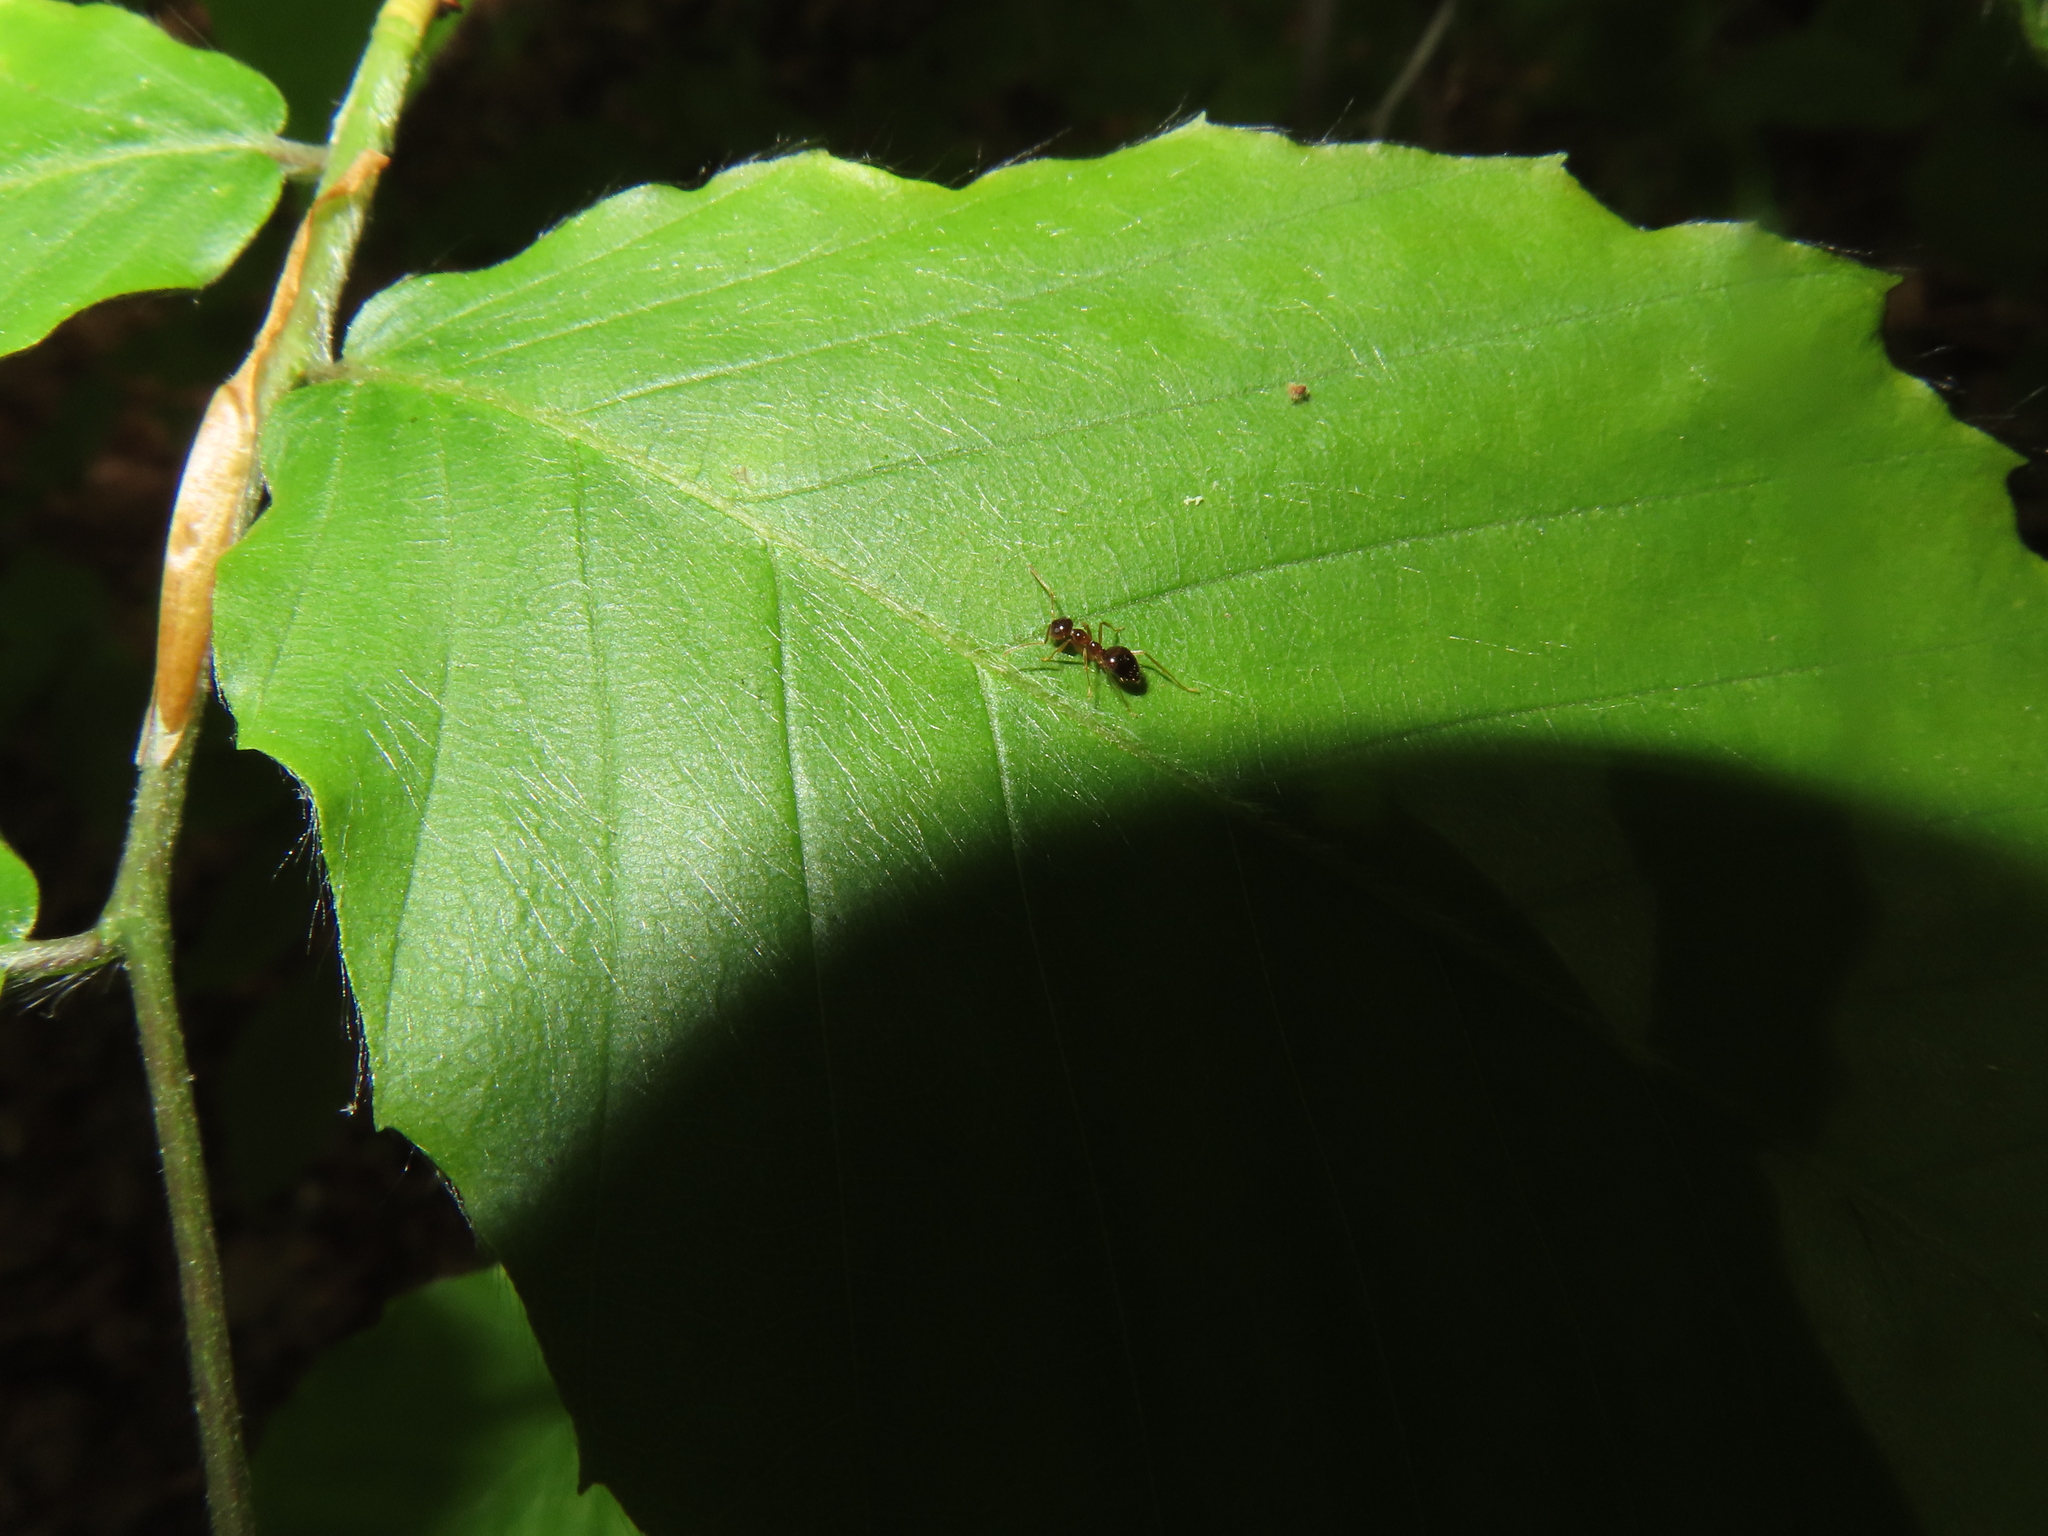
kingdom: Animalia
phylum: Arthropoda
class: Insecta
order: Hymenoptera
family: Formicidae
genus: Prenolepis
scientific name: Prenolepis imparis
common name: Small honey ant
